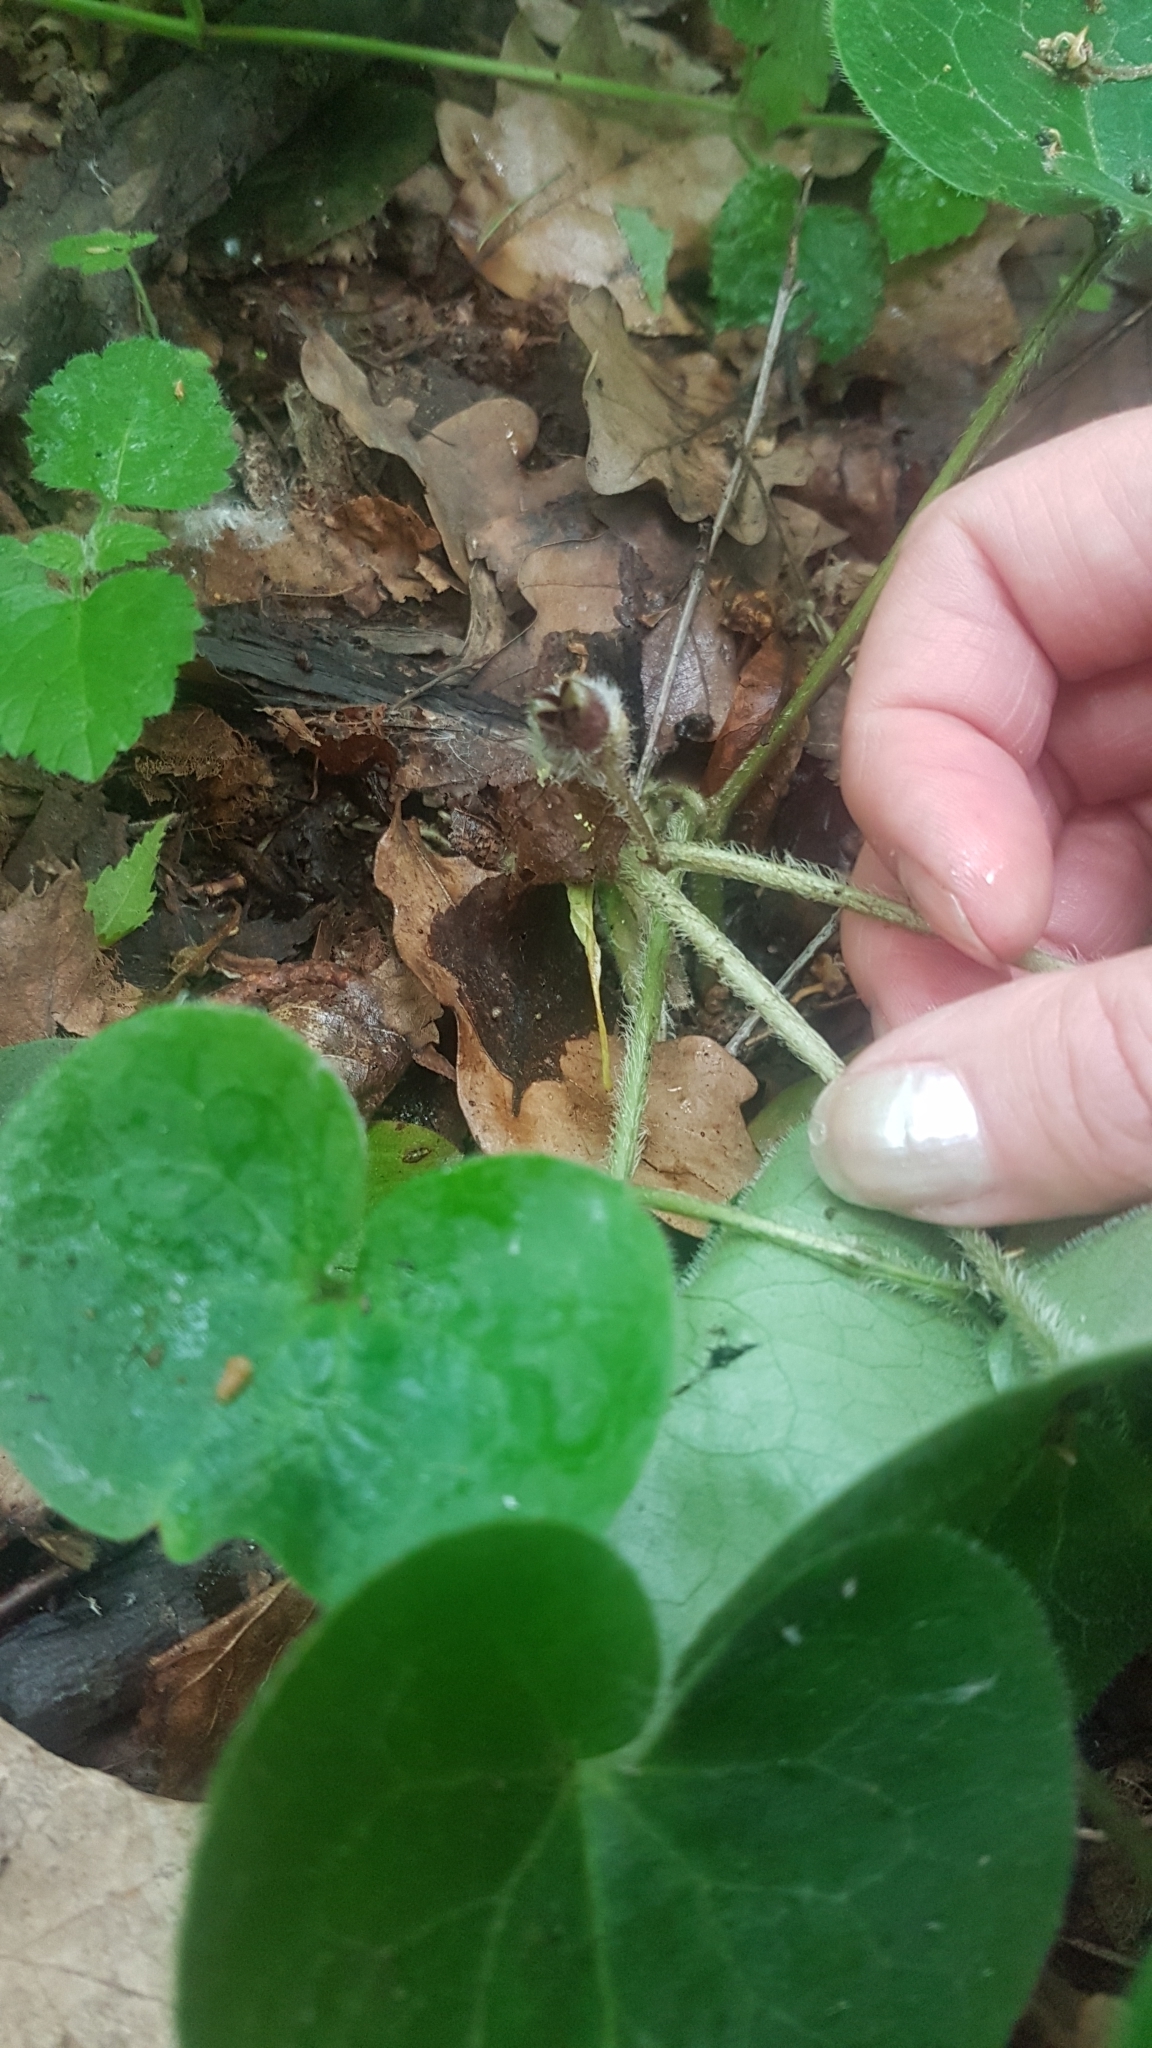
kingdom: Plantae
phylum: Tracheophyta
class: Magnoliopsida
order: Piperales
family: Aristolochiaceae
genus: Asarum
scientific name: Asarum europaeum
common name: Asarabacca
